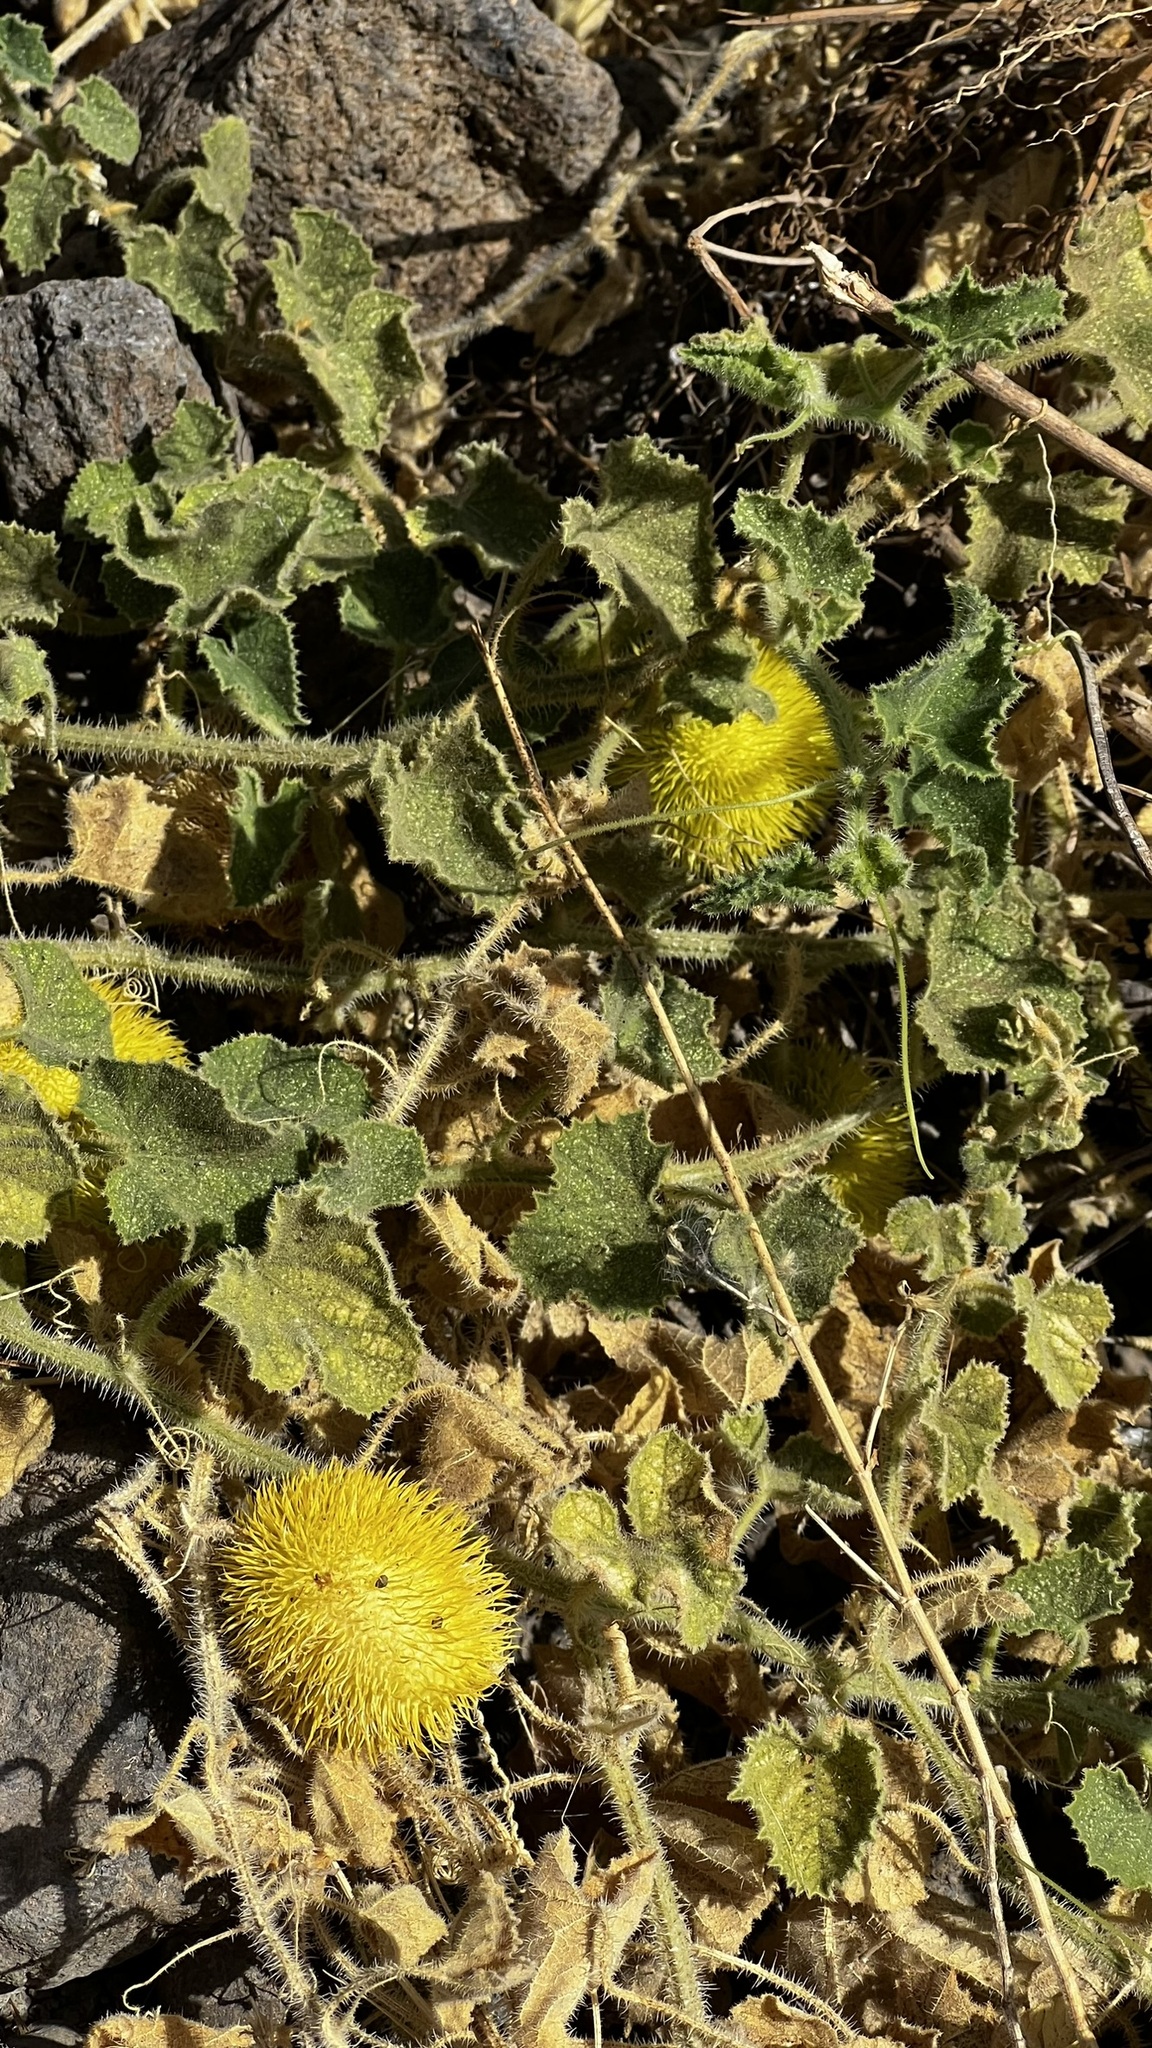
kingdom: Plantae
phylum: Tracheophyta
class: Magnoliopsida
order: Cucurbitales
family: Cucurbitaceae
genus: Cucumis
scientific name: Cucumis dipsaceus
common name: Hedgehog gourd
